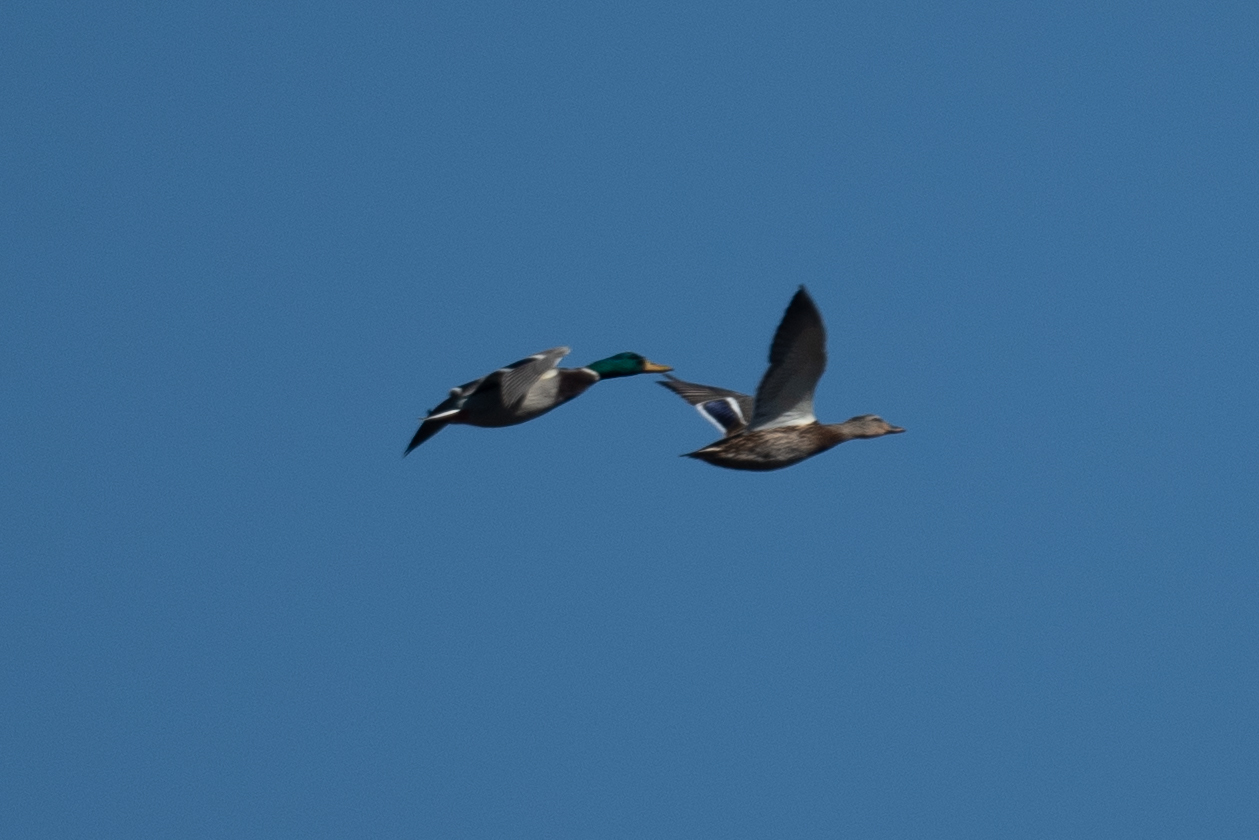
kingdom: Animalia
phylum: Chordata
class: Aves
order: Anseriformes
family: Anatidae
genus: Anas
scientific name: Anas platyrhynchos
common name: Mallard
